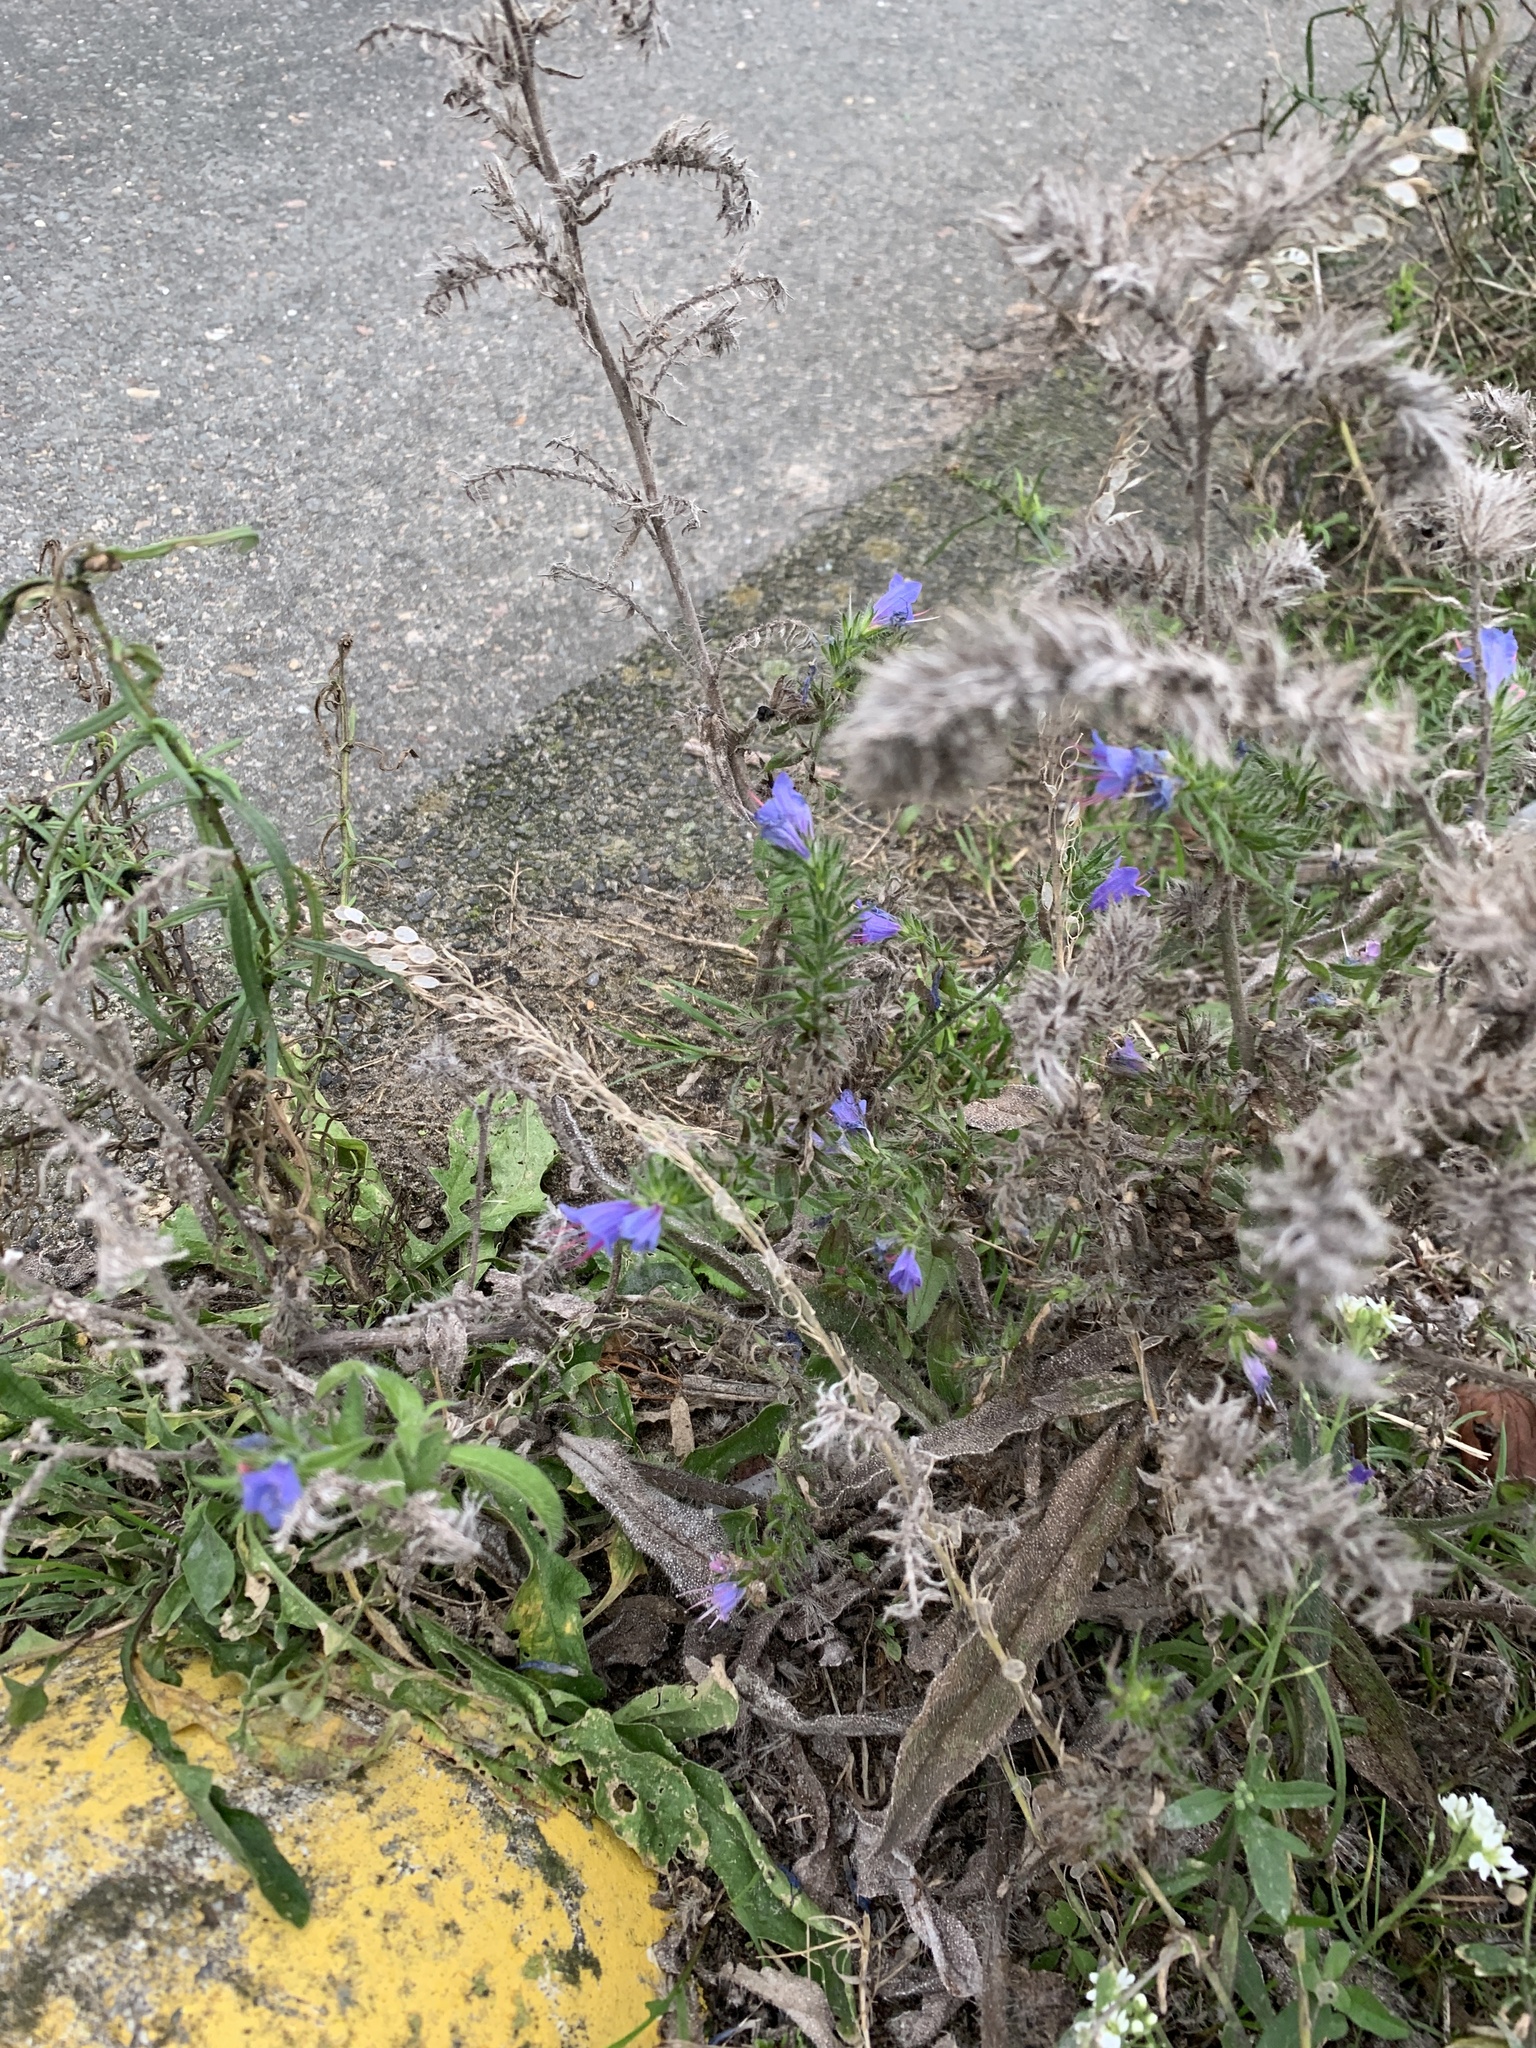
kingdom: Plantae
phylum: Tracheophyta
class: Magnoliopsida
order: Boraginales
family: Boraginaceae
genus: Echium
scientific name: Echium vulgare
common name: Common viper's bugloss
